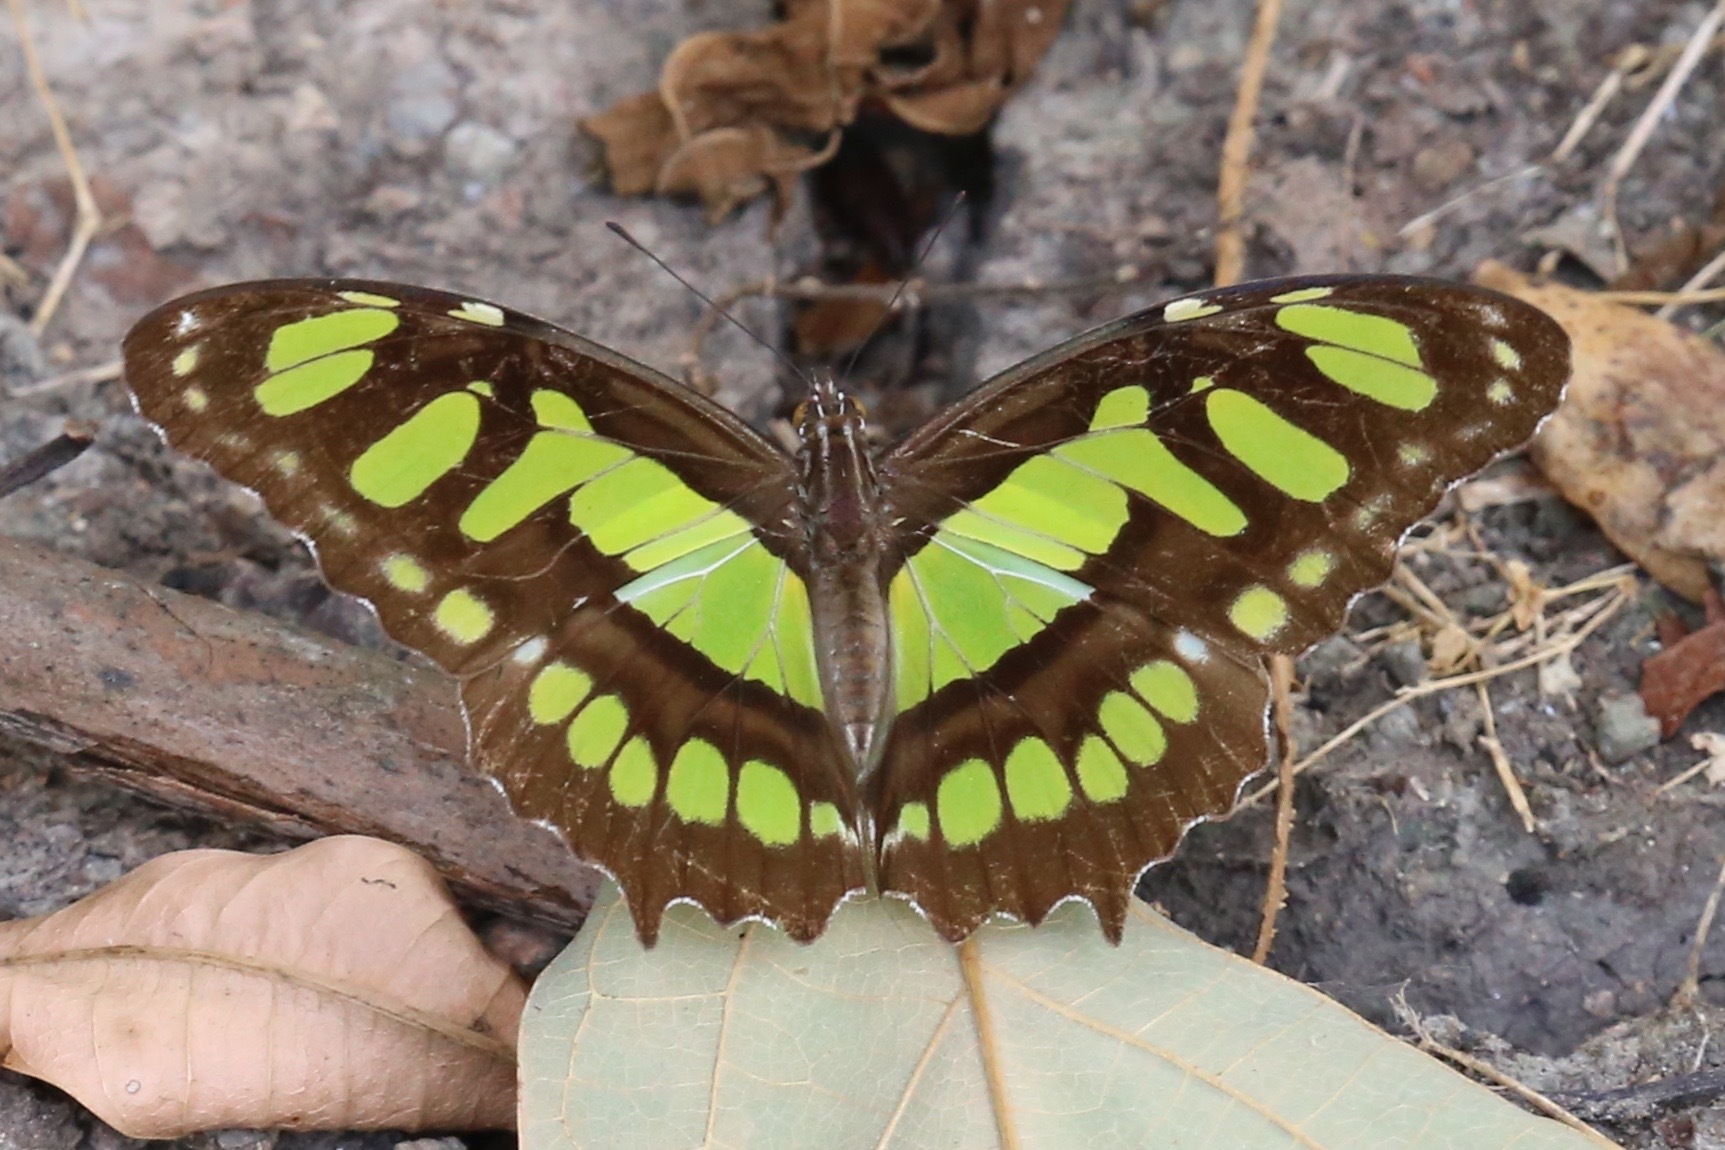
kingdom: Animalia
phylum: Arthropoda
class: Insecta
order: Lepidoptera
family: Nymphalidae
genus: Siproeta
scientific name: Siproeta stelenes
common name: Malachite
